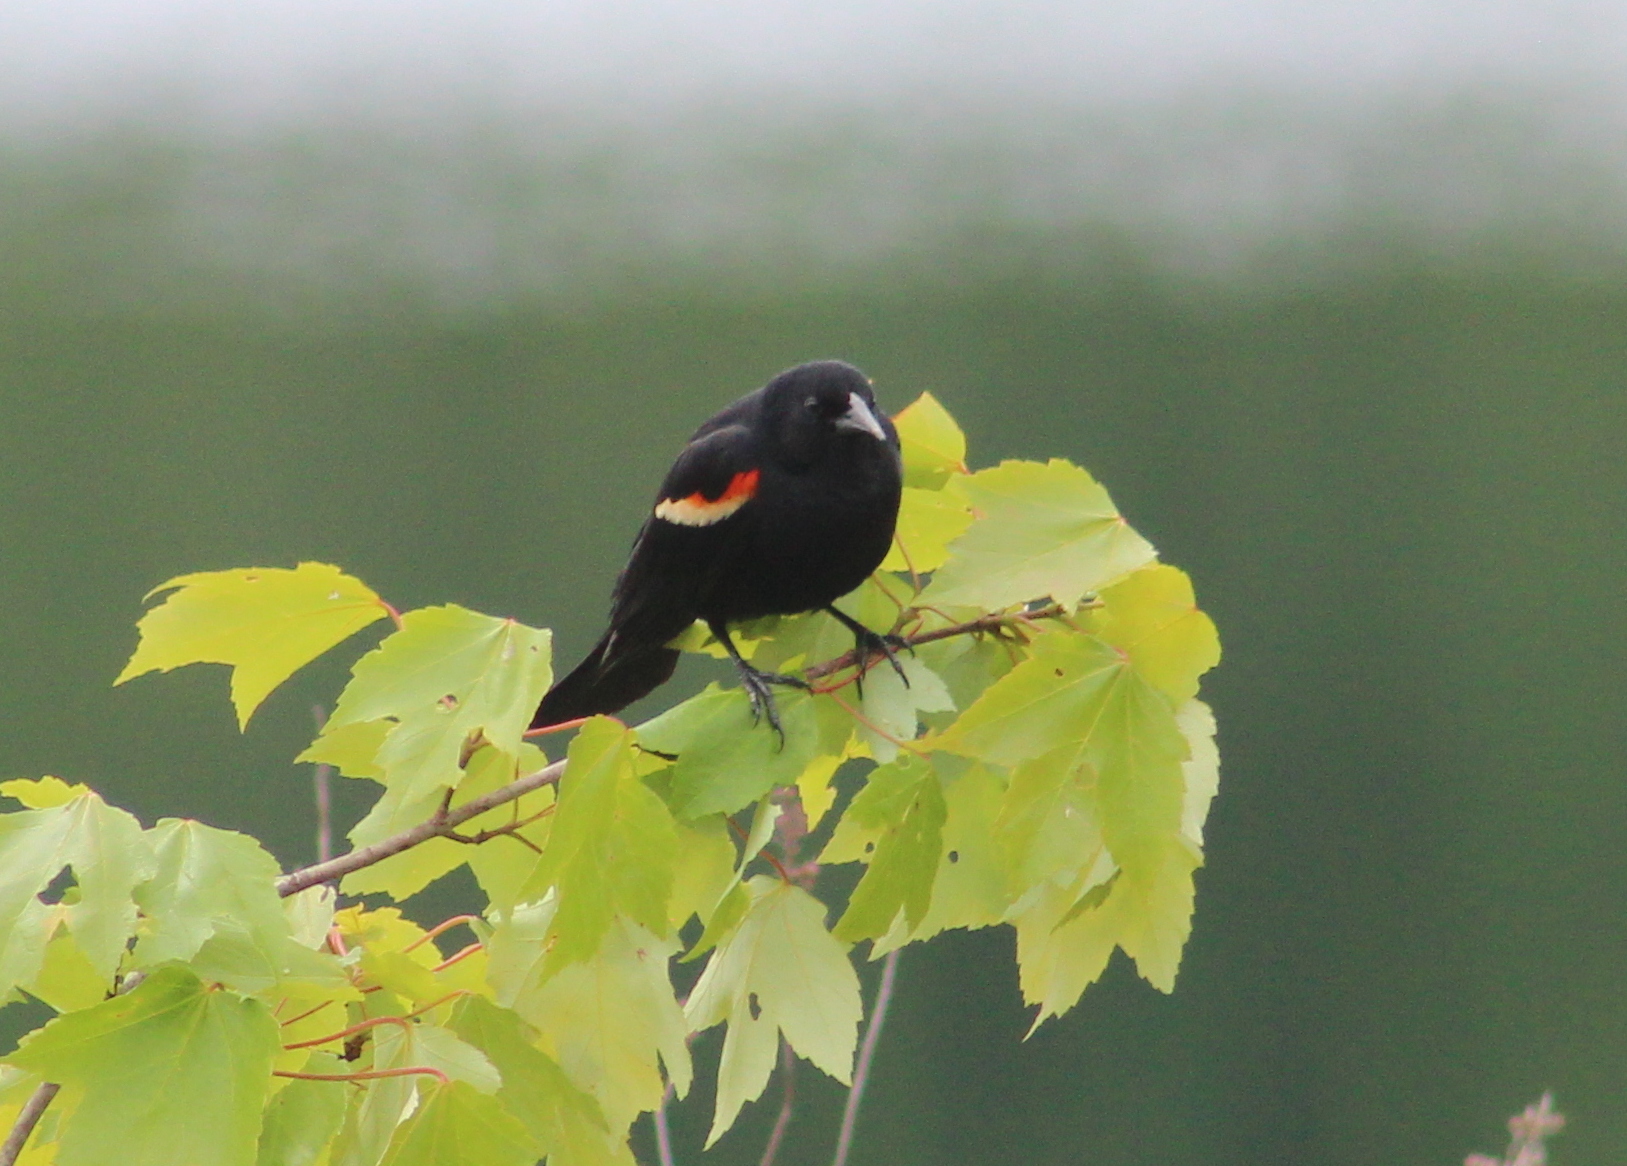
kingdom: Animalia
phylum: Chordata
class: Aves
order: Passeriformes
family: Icteridae
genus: Agelaius
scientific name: Agelaius phoeniceus
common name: Red-winged blackbird
